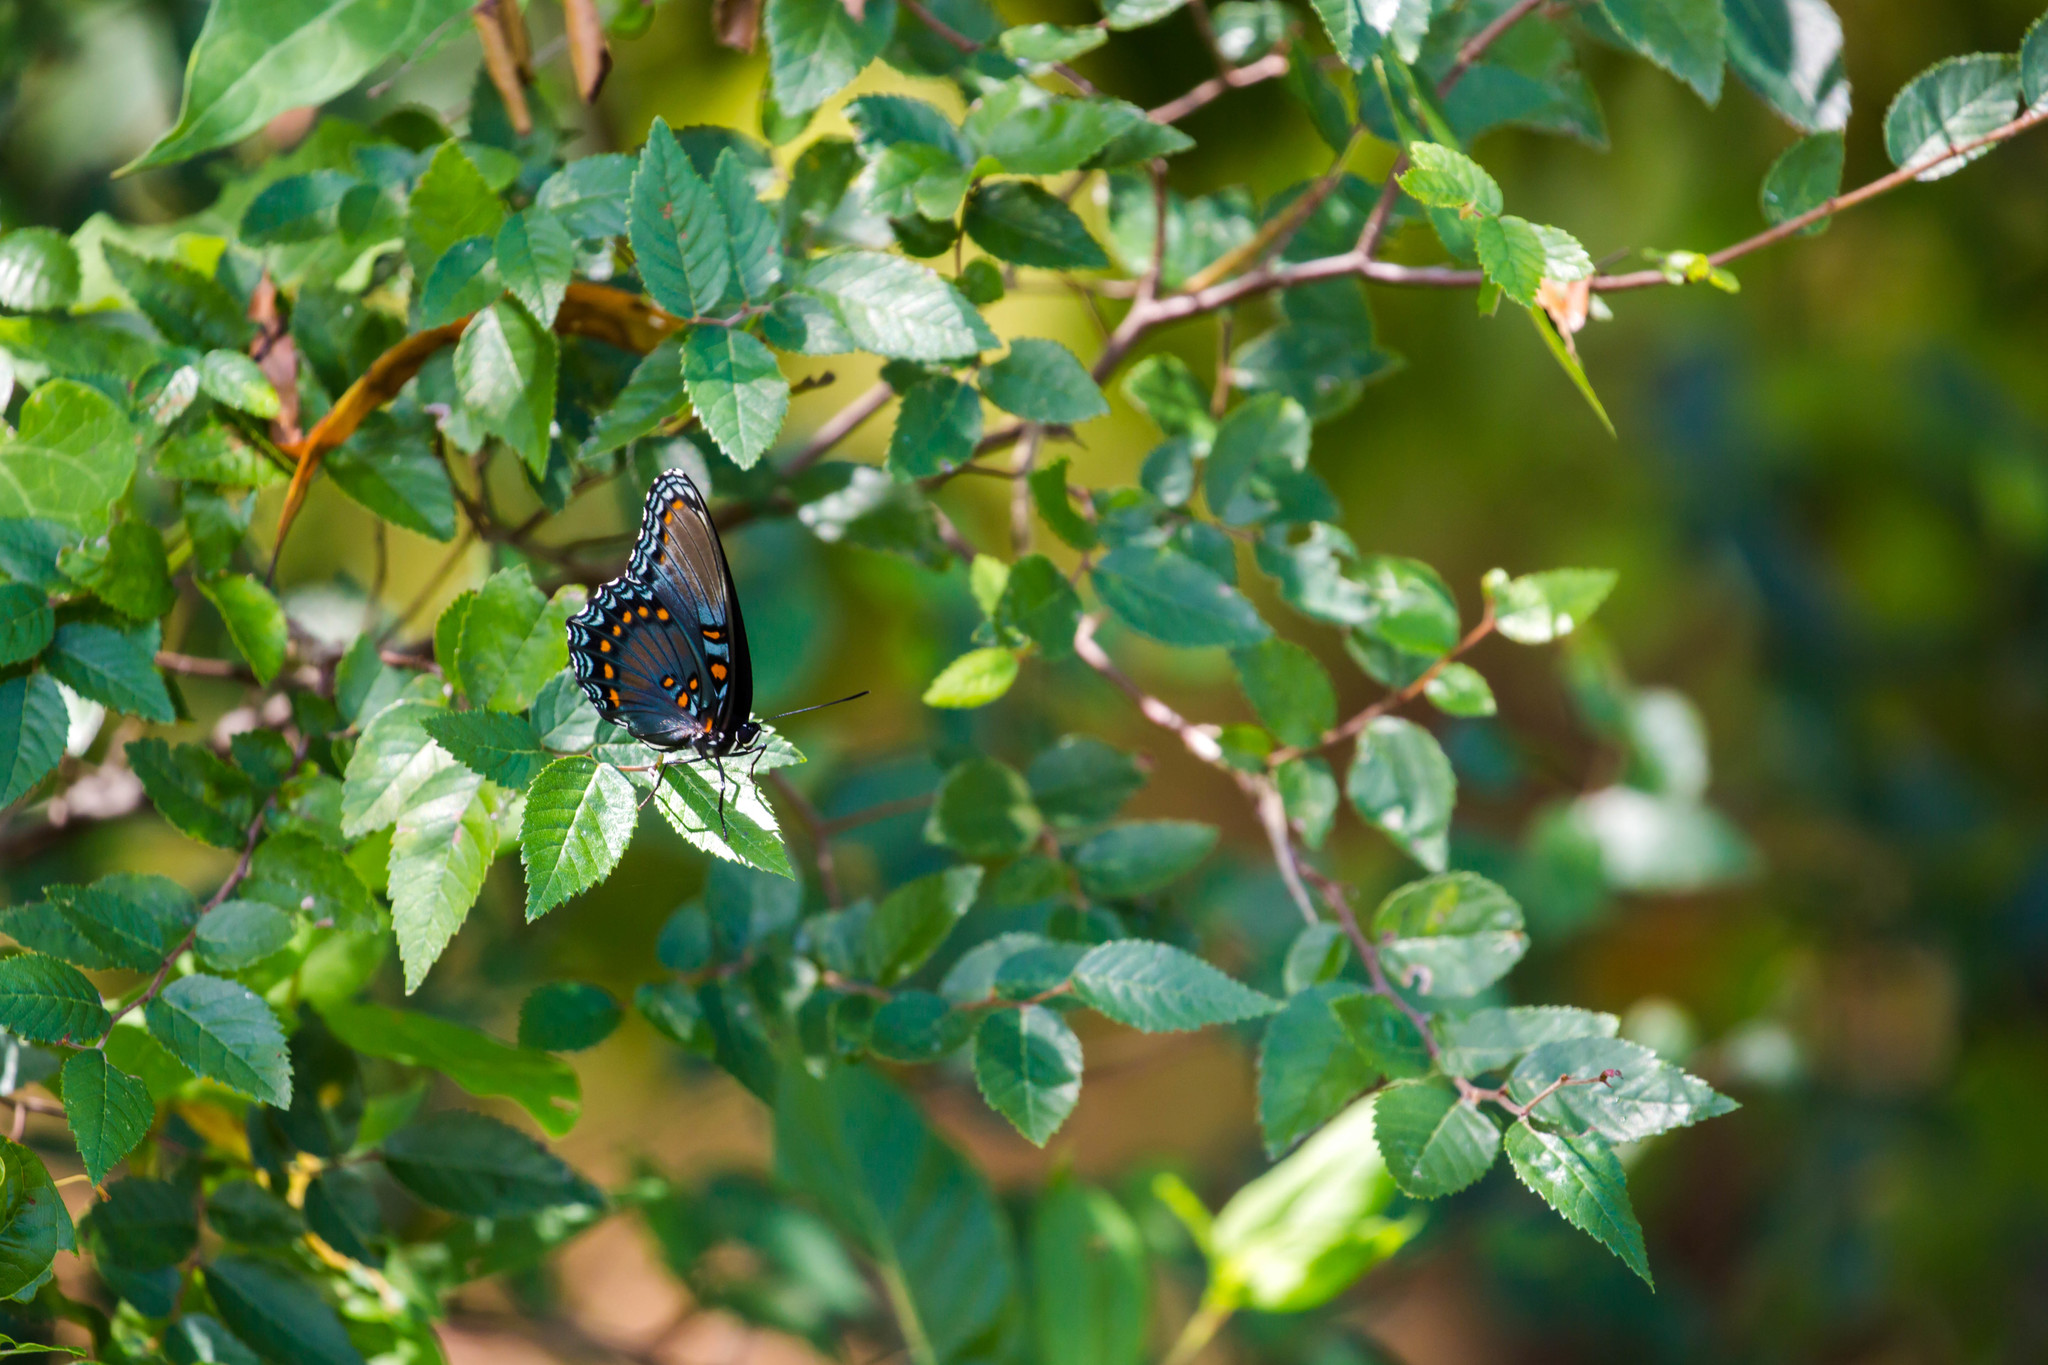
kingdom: Animalia
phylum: Arthropoda
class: Insecta
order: Lepidoptera
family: Nymphalidae
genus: Limenitis
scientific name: Limenitis astyanax
